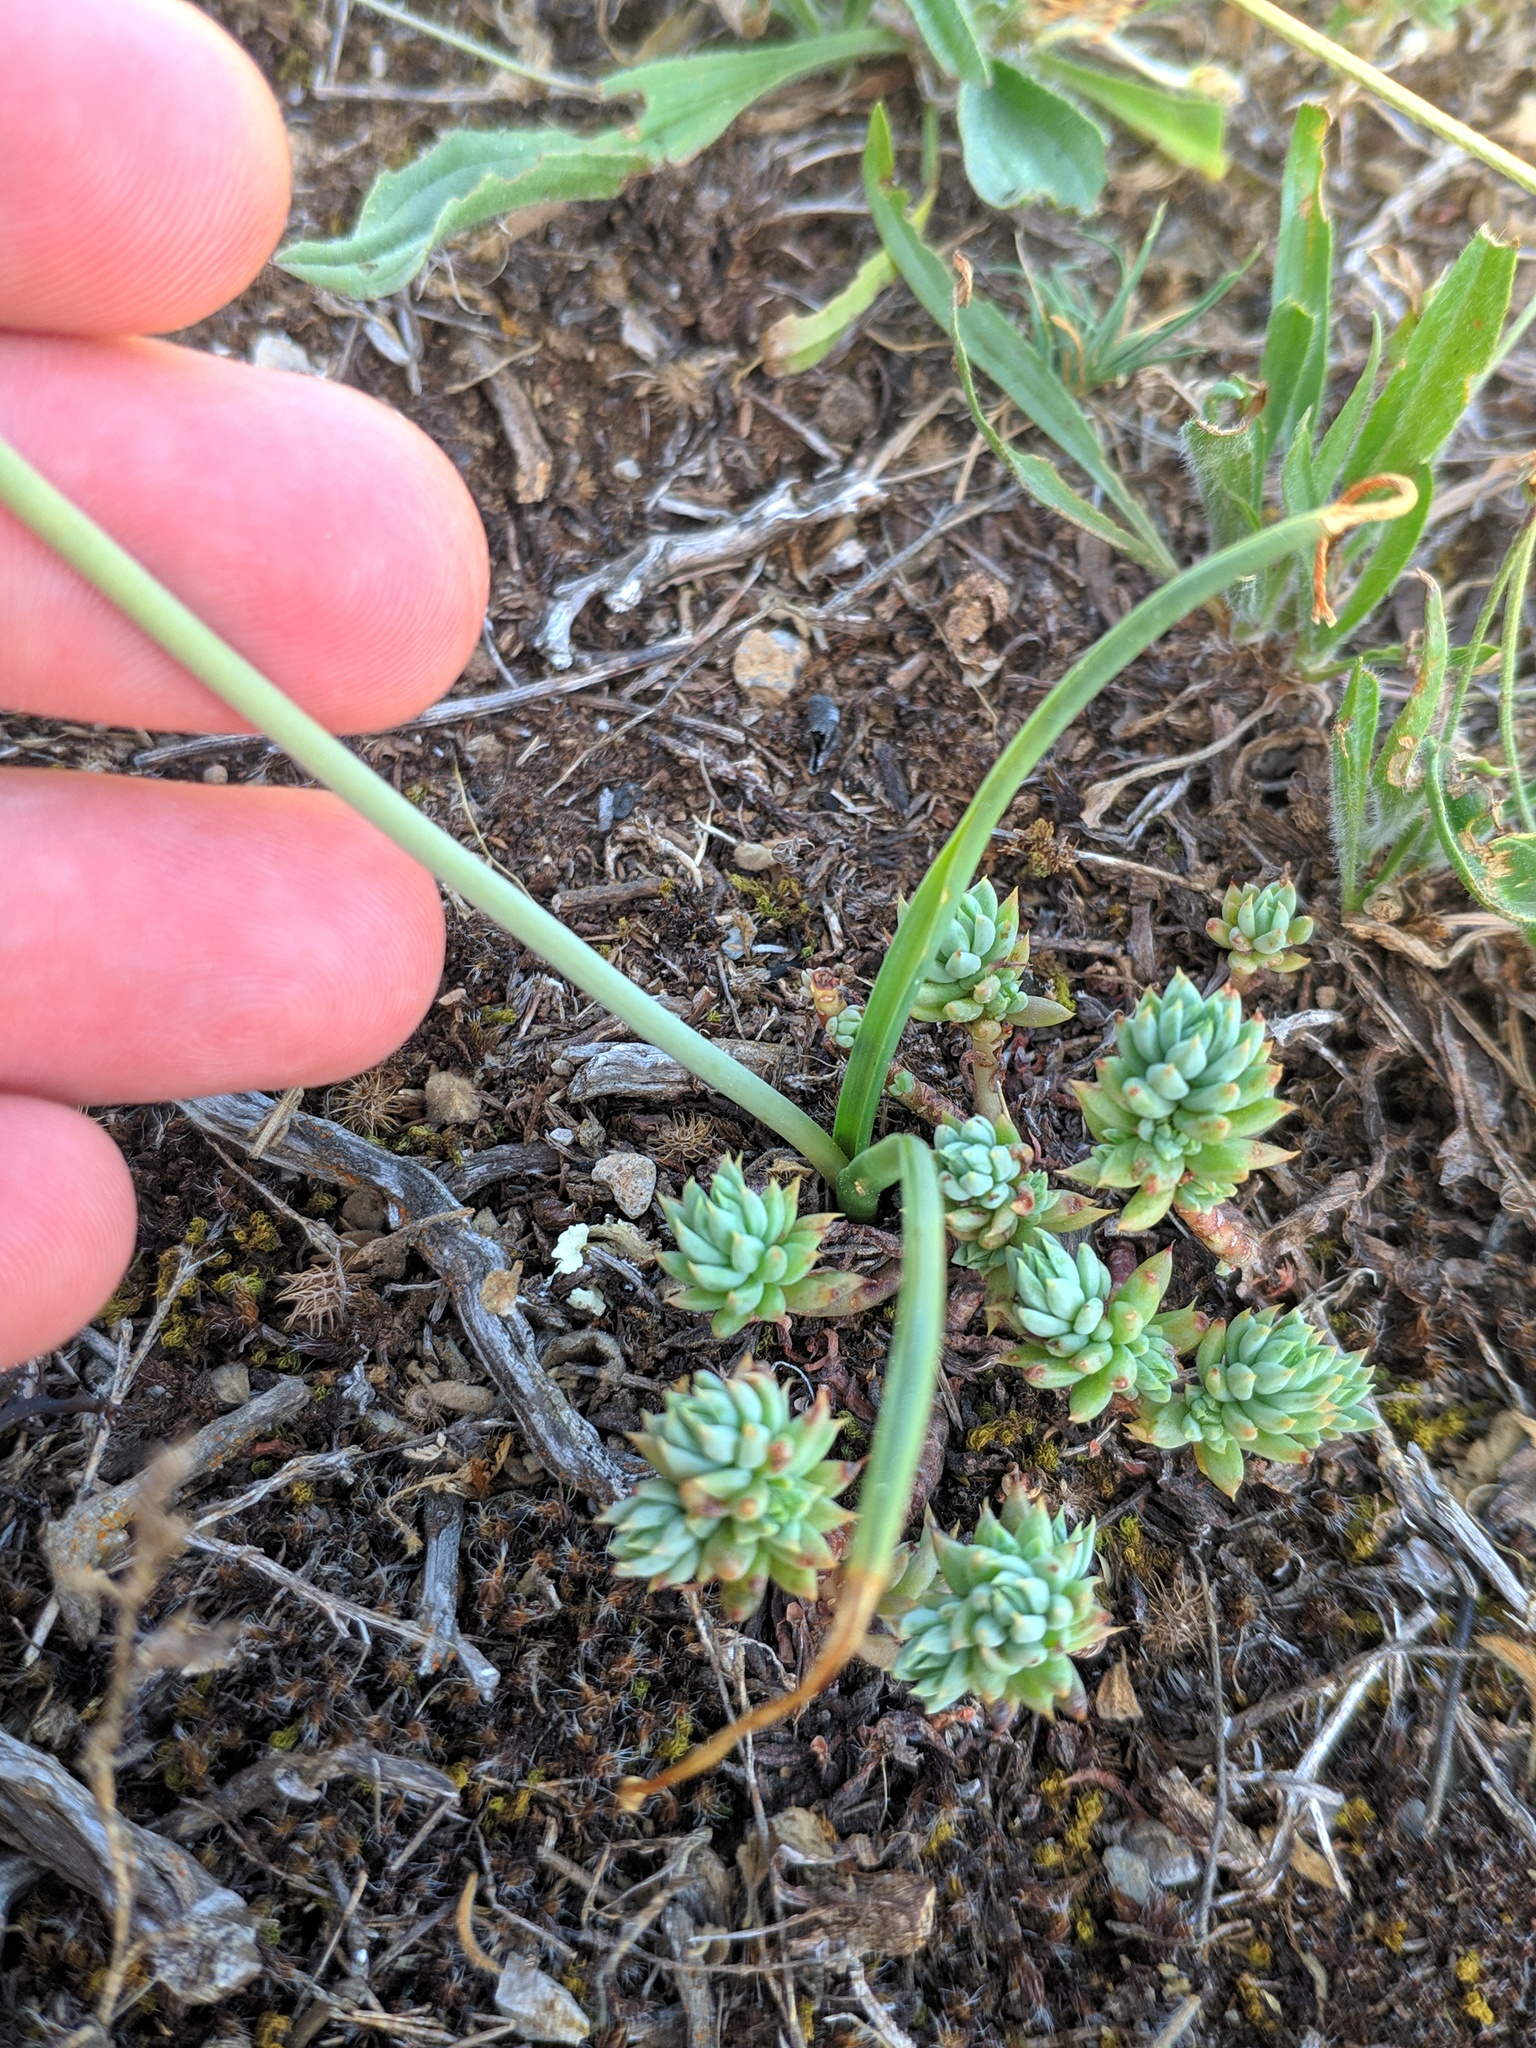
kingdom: Plantae
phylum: Tracheophyta
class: Liliopsida
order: Asparagales
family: Asparagaceae
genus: Dipcadi
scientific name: Dipcadi serotinum
